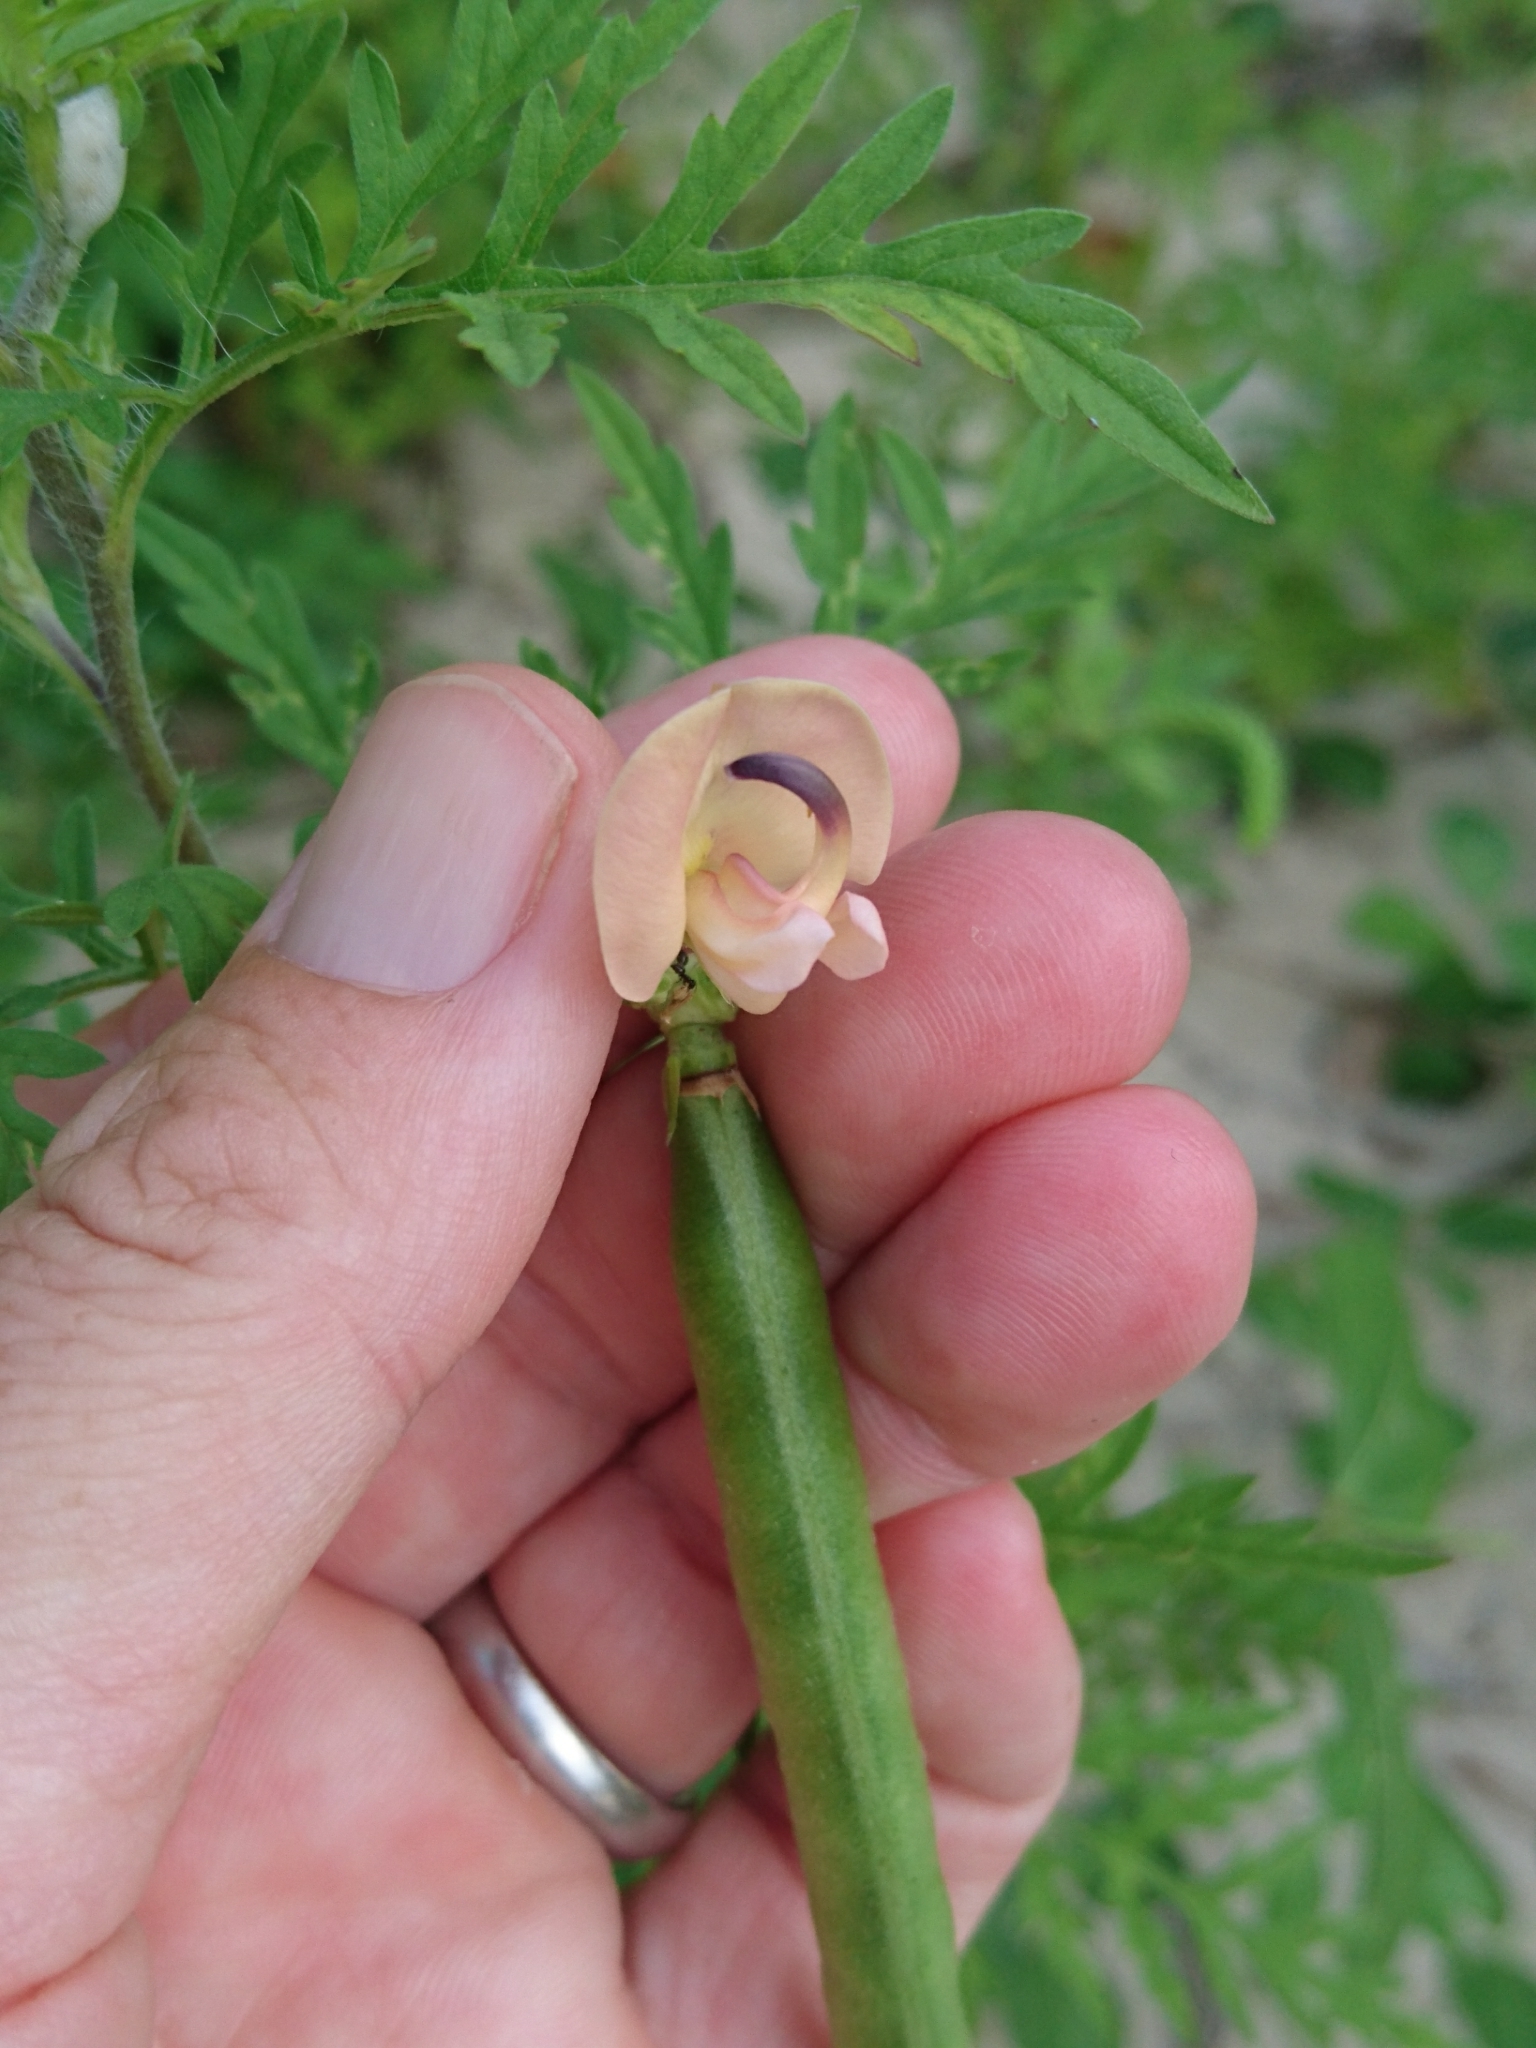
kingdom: Plantae
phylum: Tracheophyta
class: Magnoliopsida
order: Fabales
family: Fabaceae
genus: Strophostyles
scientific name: Strophostyles helvola
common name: Trailing wild bean
